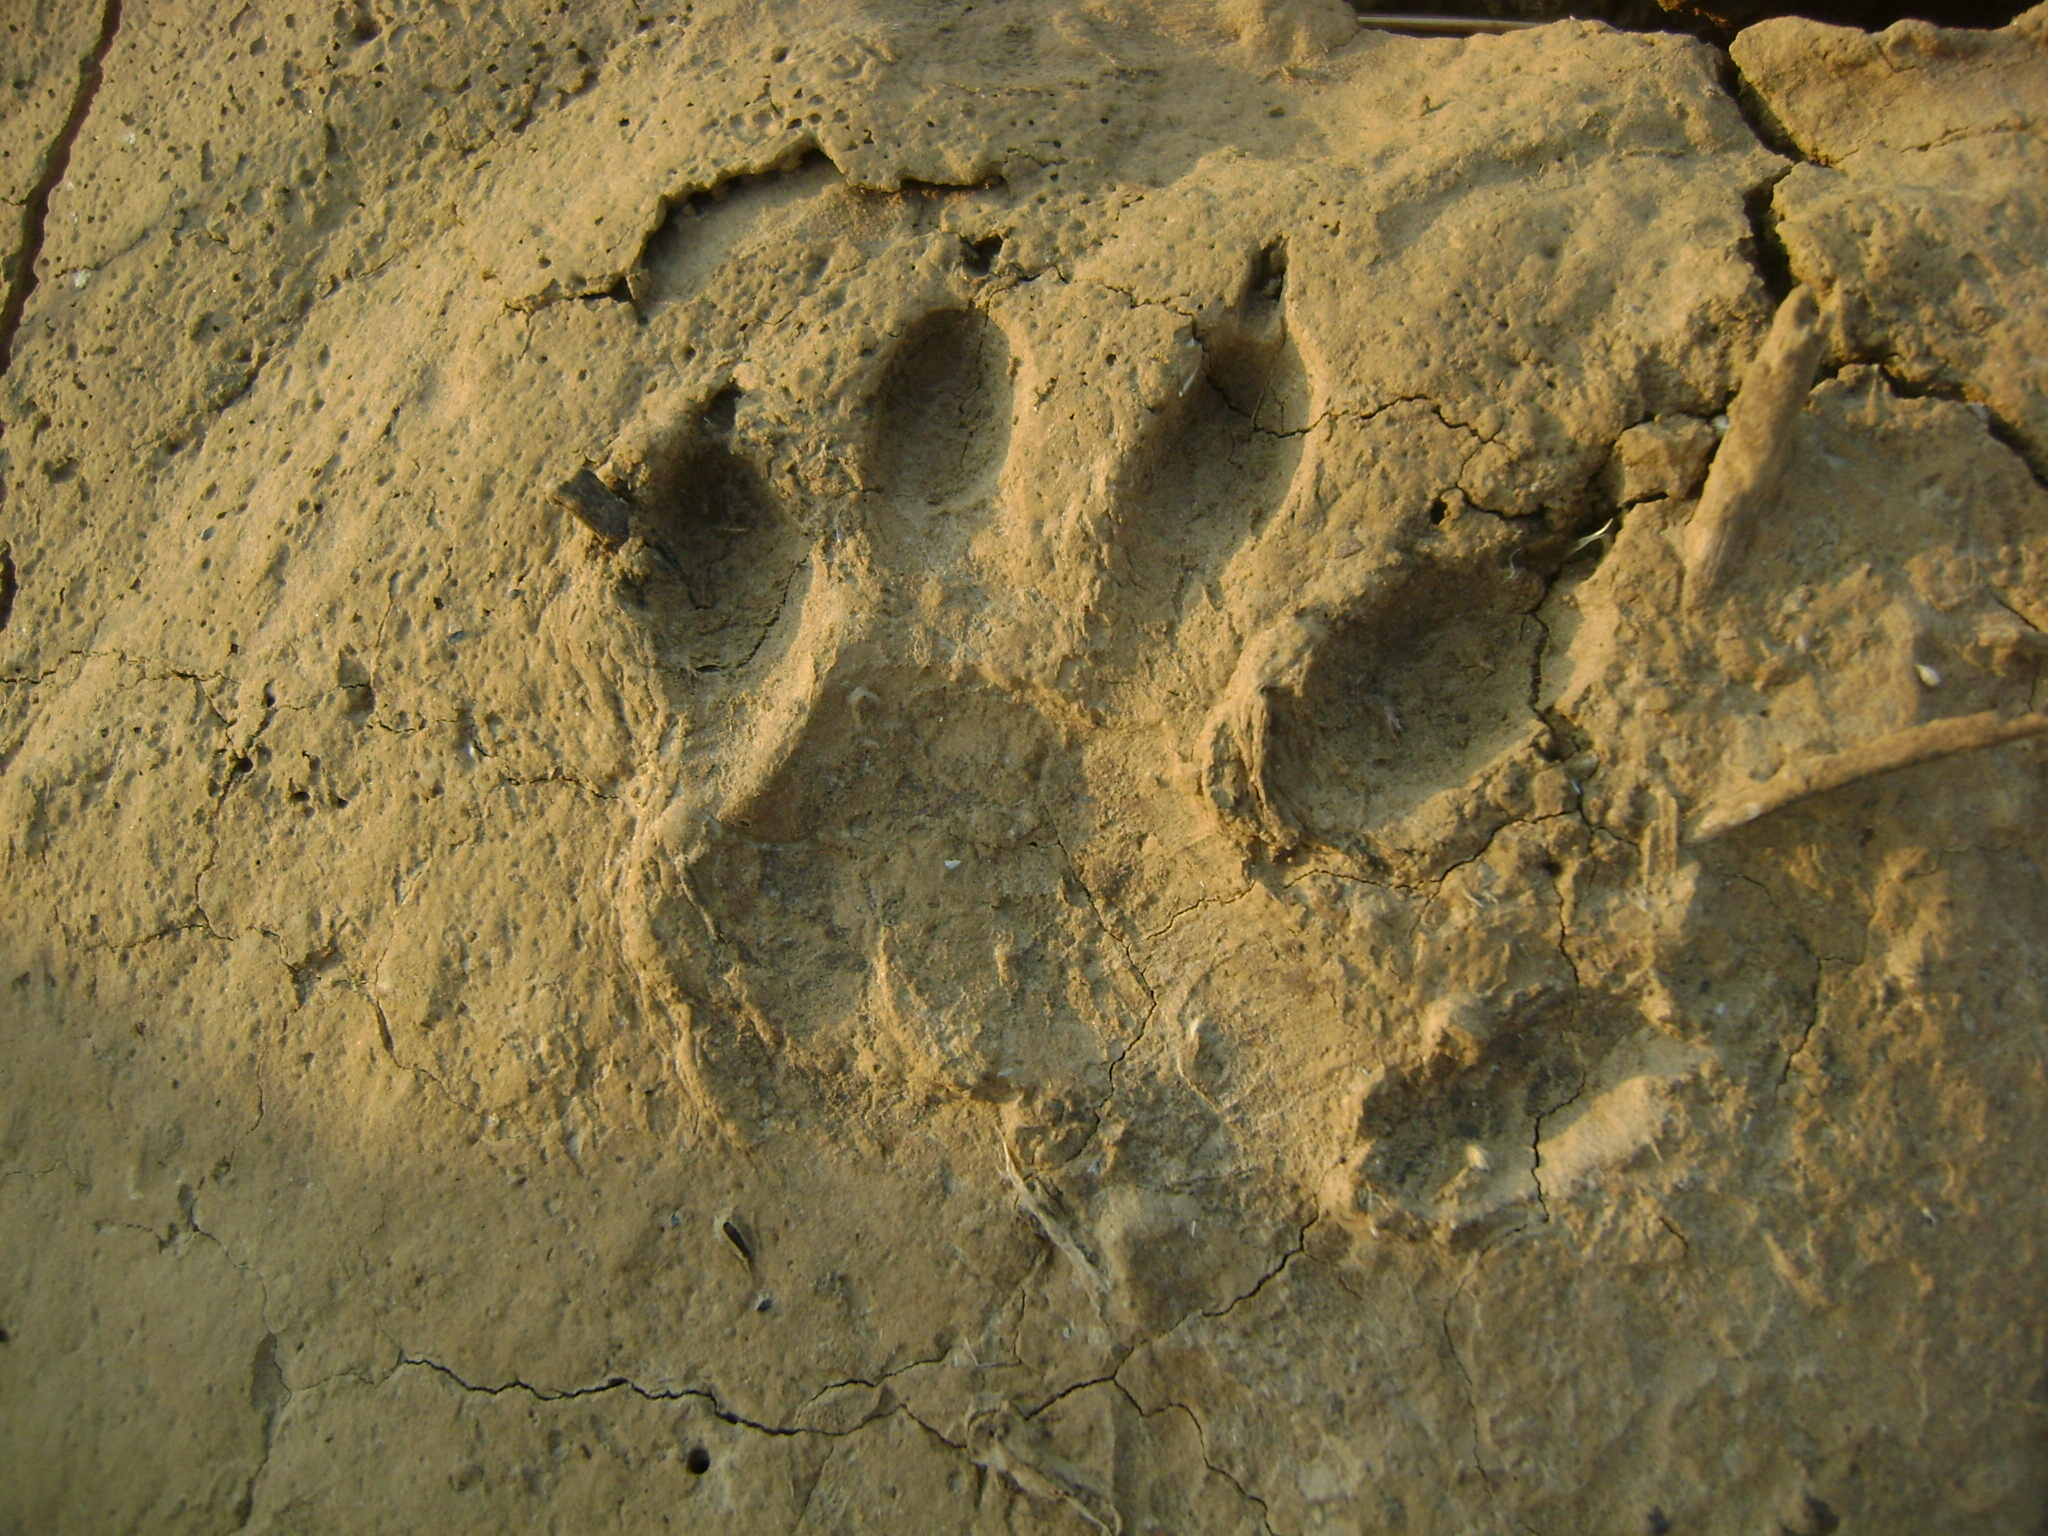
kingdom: Animalia
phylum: Chordata
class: Mammalia
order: Carnivora
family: Mustelidae
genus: Eira
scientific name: Eira barbara
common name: Tayra
